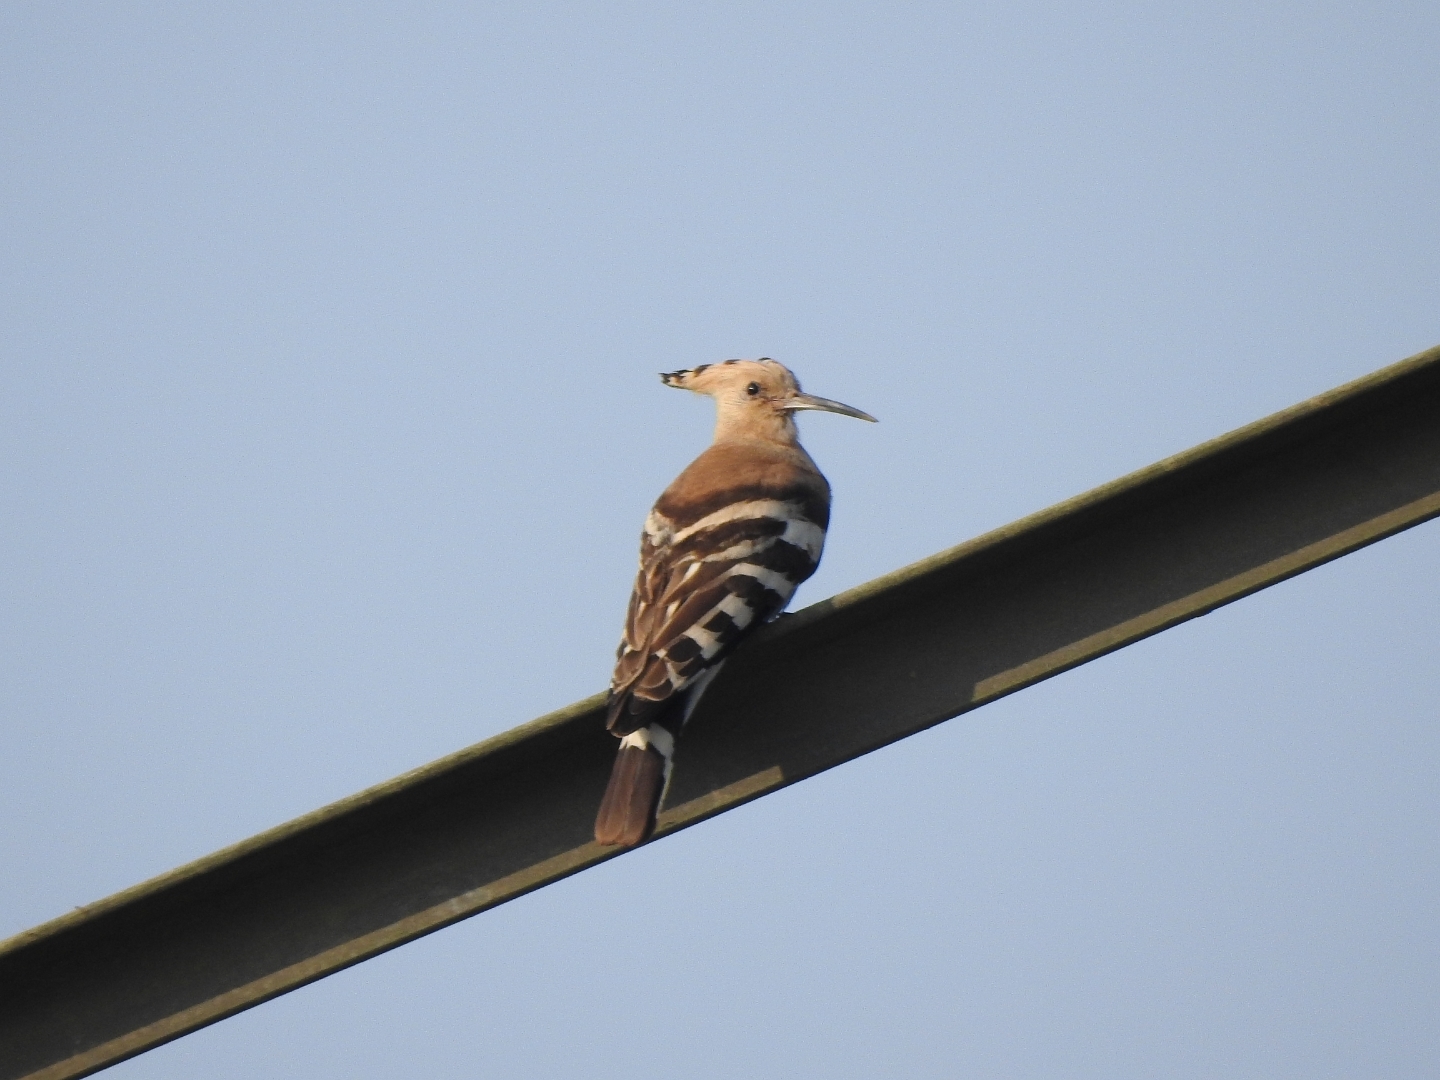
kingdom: Animalia
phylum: Chordata
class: Aves
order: Bucerotiformes
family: Upupidae
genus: Upupa
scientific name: Upupa epops
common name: Eurasian hoopoe
